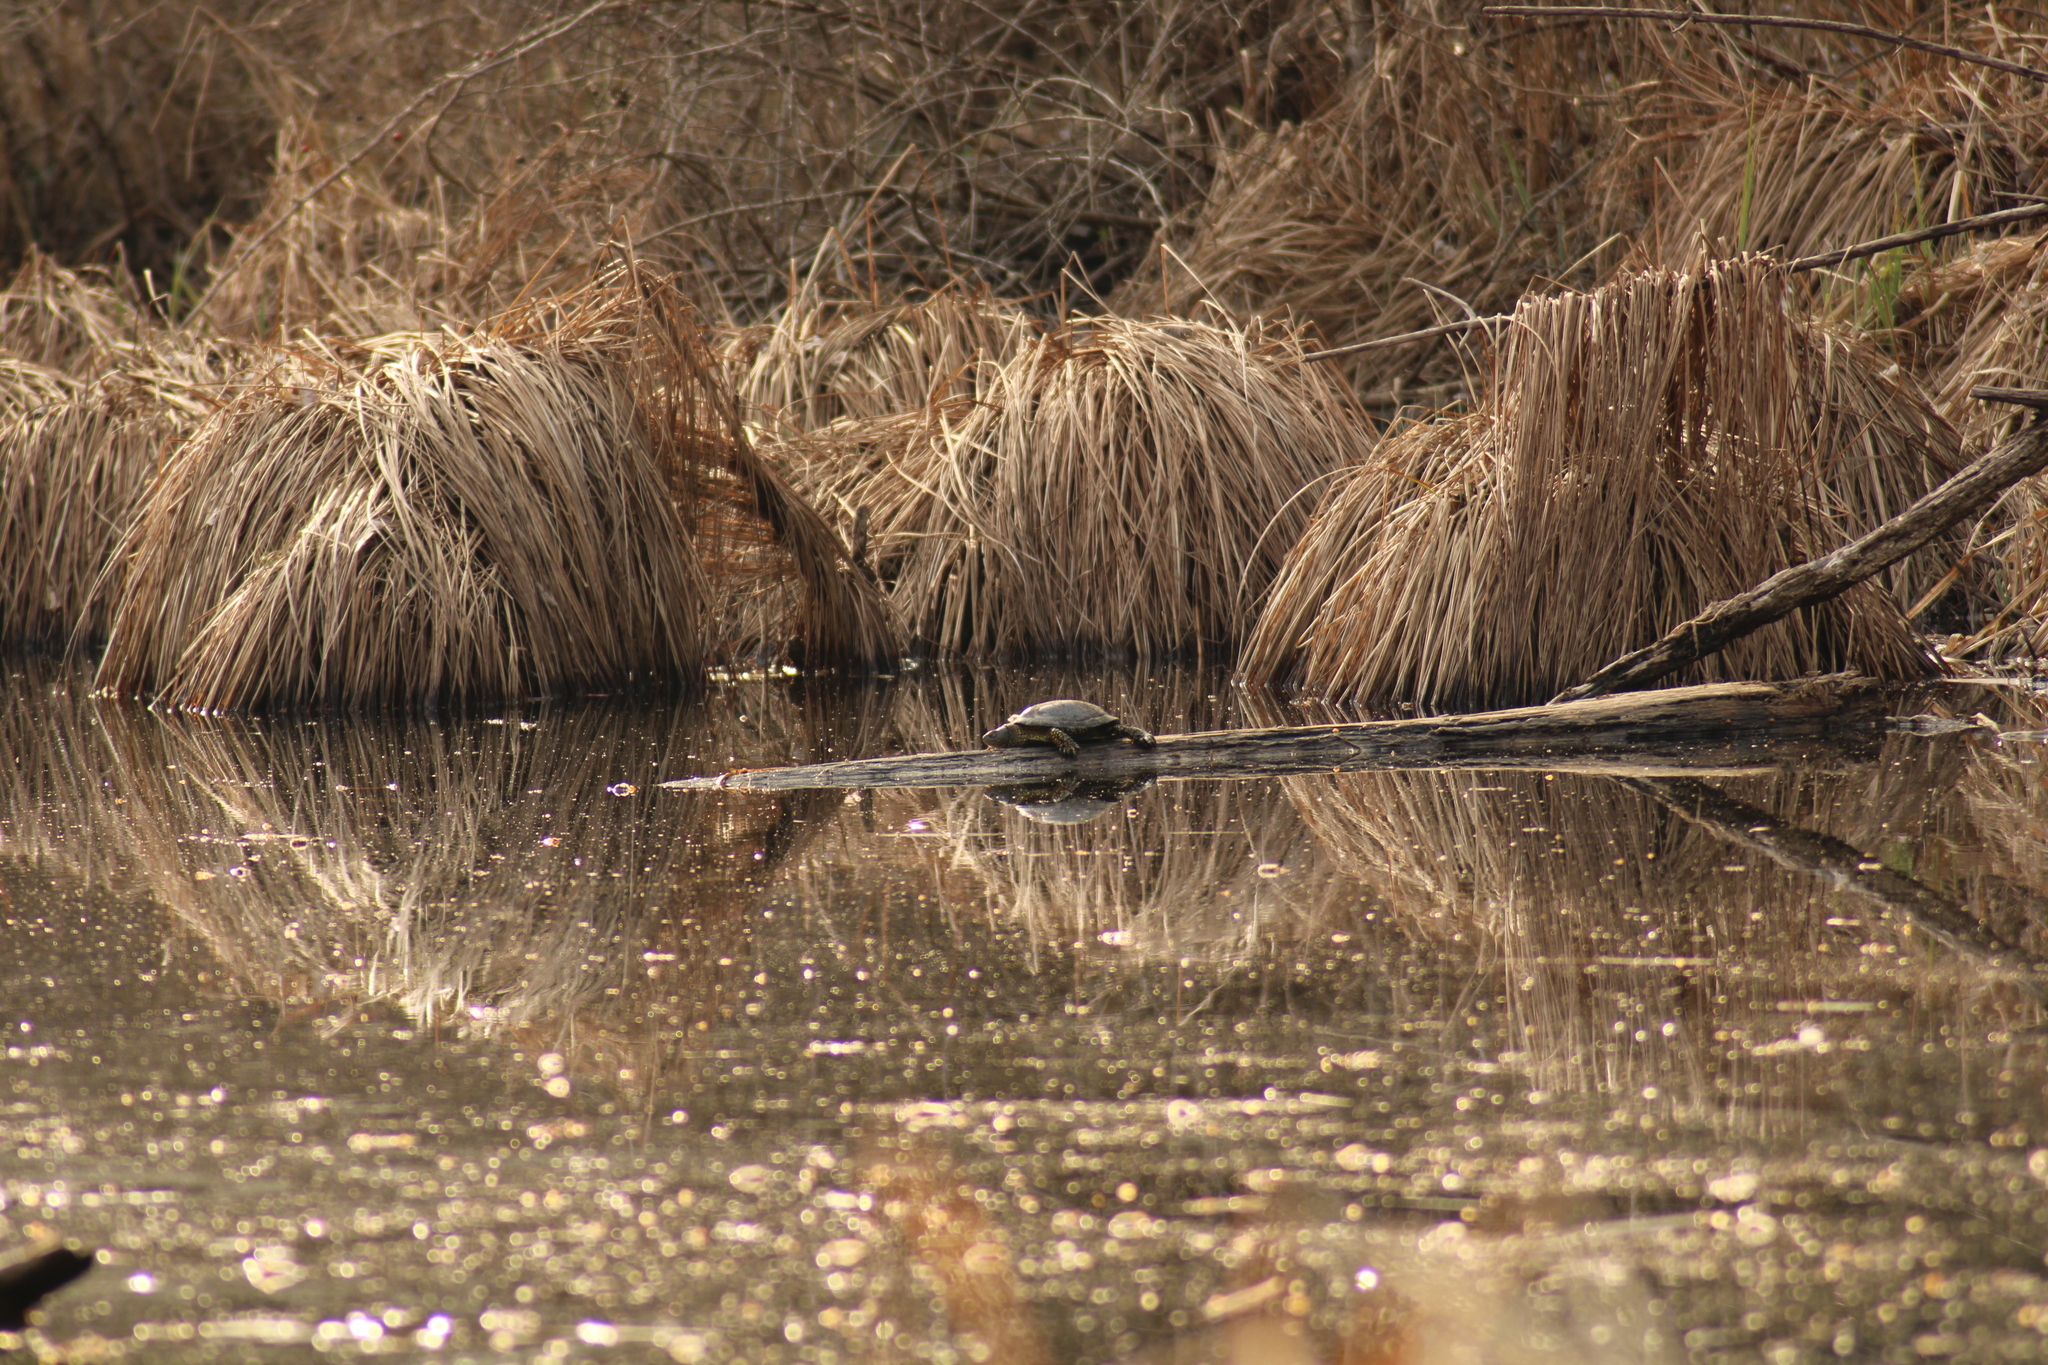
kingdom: Animalia
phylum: Chordata
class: Testudines
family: Emydidae
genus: Emys
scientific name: Emys orbicularis
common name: European pond turtle
